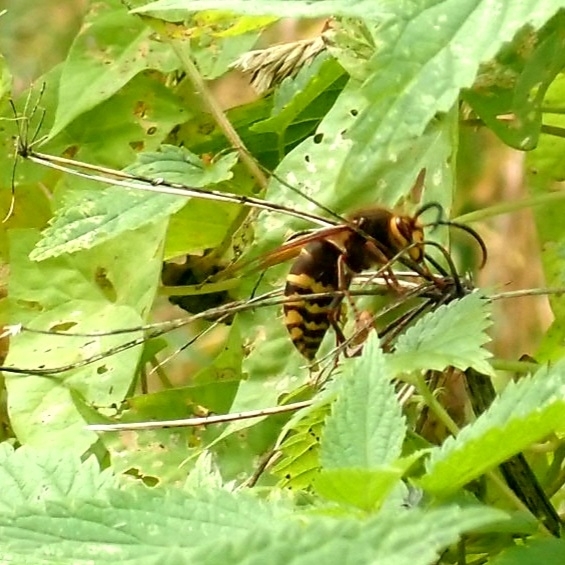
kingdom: Animalia
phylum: Arthropoda
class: Insecta
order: Hymenoptera
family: Vespidae
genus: Vespa
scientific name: Vespa crabro
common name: Hornet
